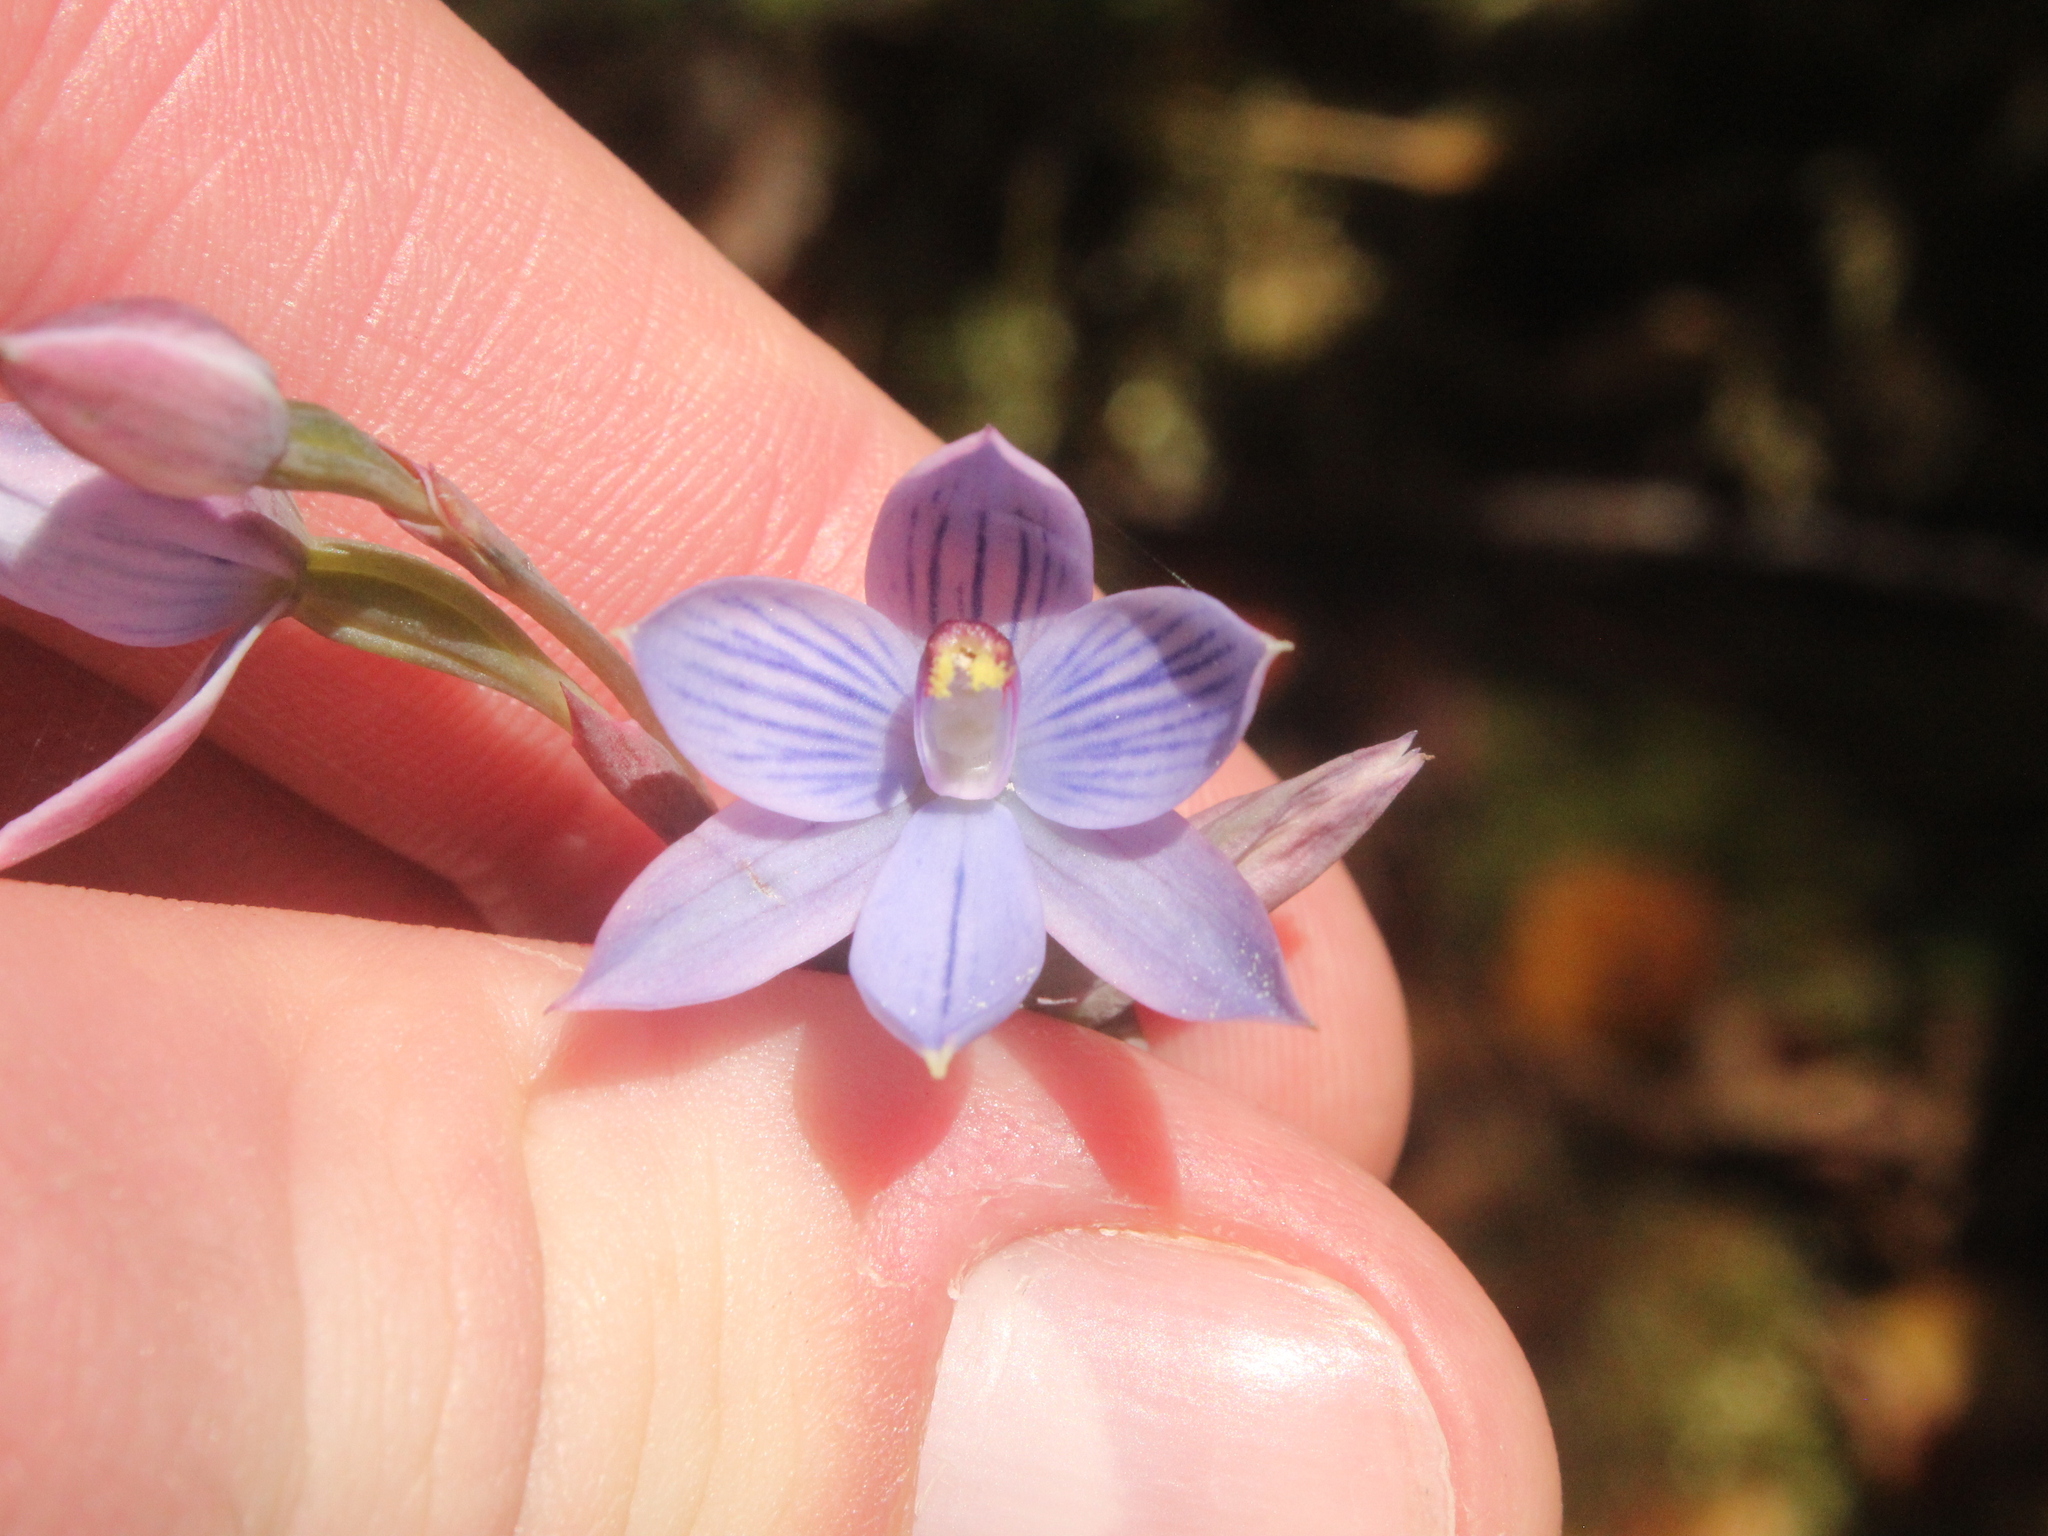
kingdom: Plantae
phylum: Tracheophyta
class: Liliopsida
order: Asparagales
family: Orchidaceae
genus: Thelymitra
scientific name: Thelymitra pulchella
